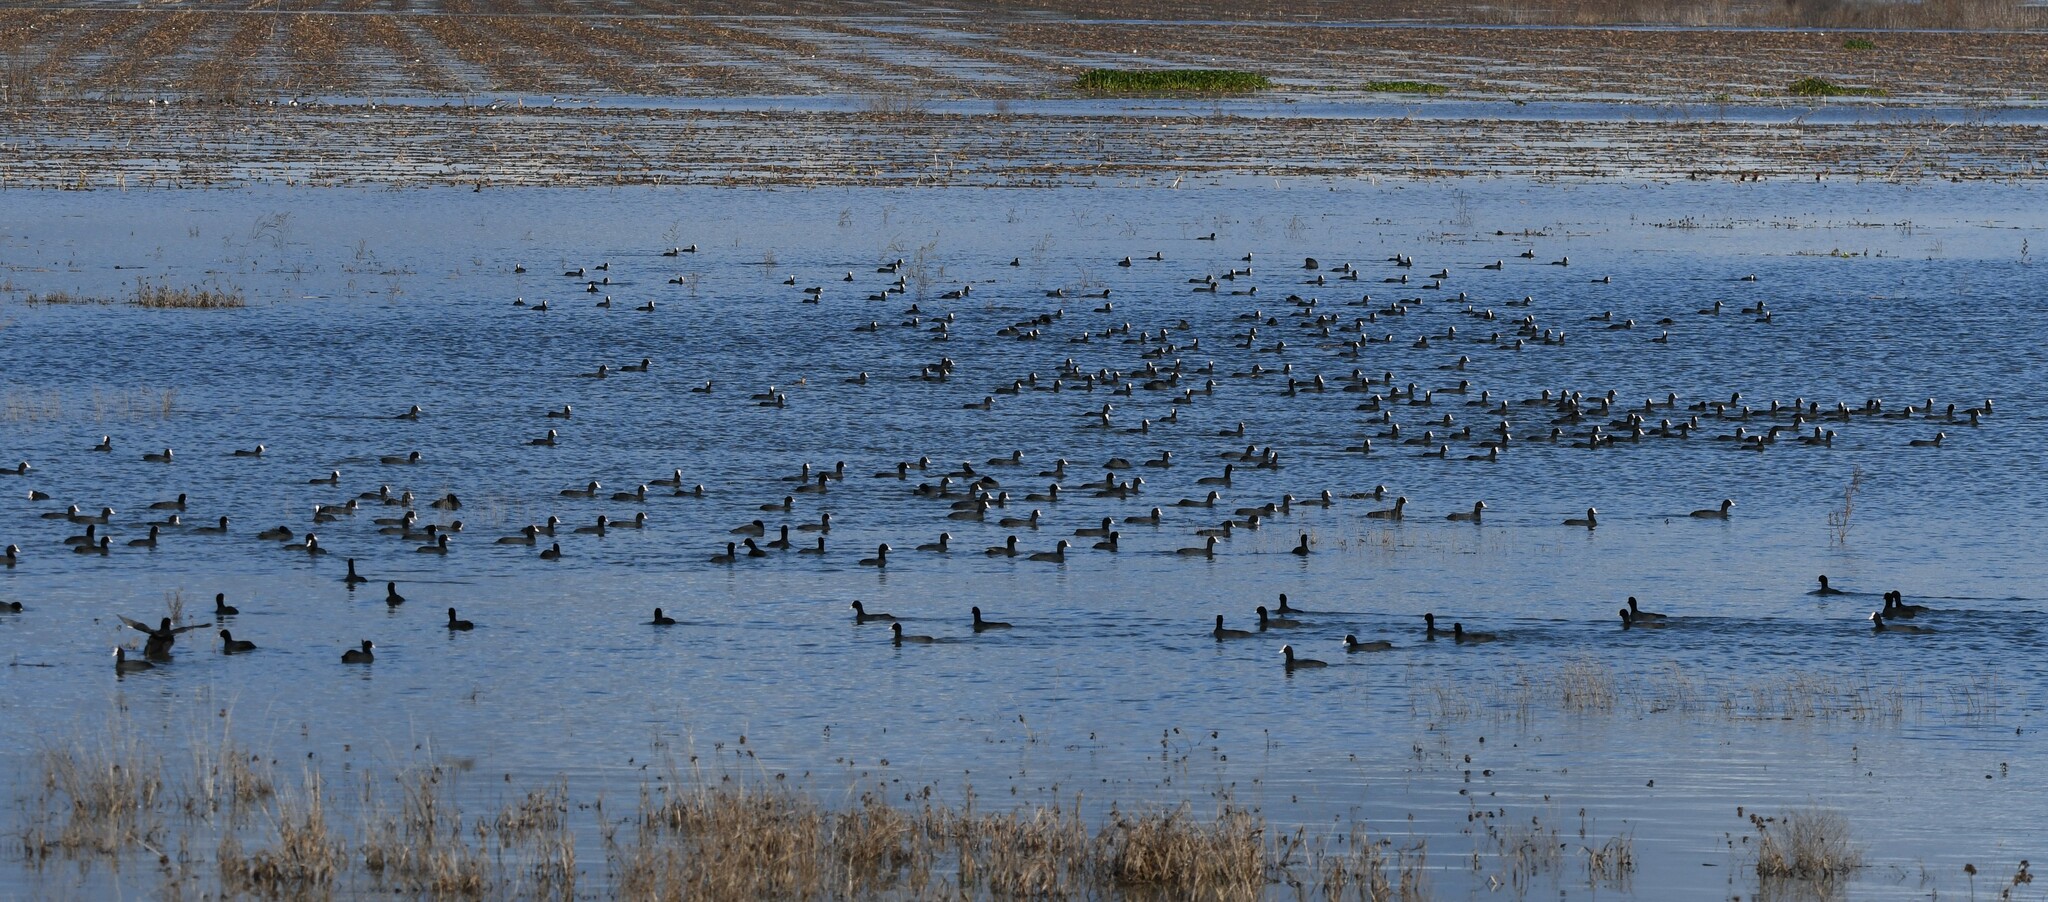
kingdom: Animalia
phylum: Chordata
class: Aves
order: Gruiformes
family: Rallidae
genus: Fulica
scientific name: Fulica atra
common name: Eurasian coot
